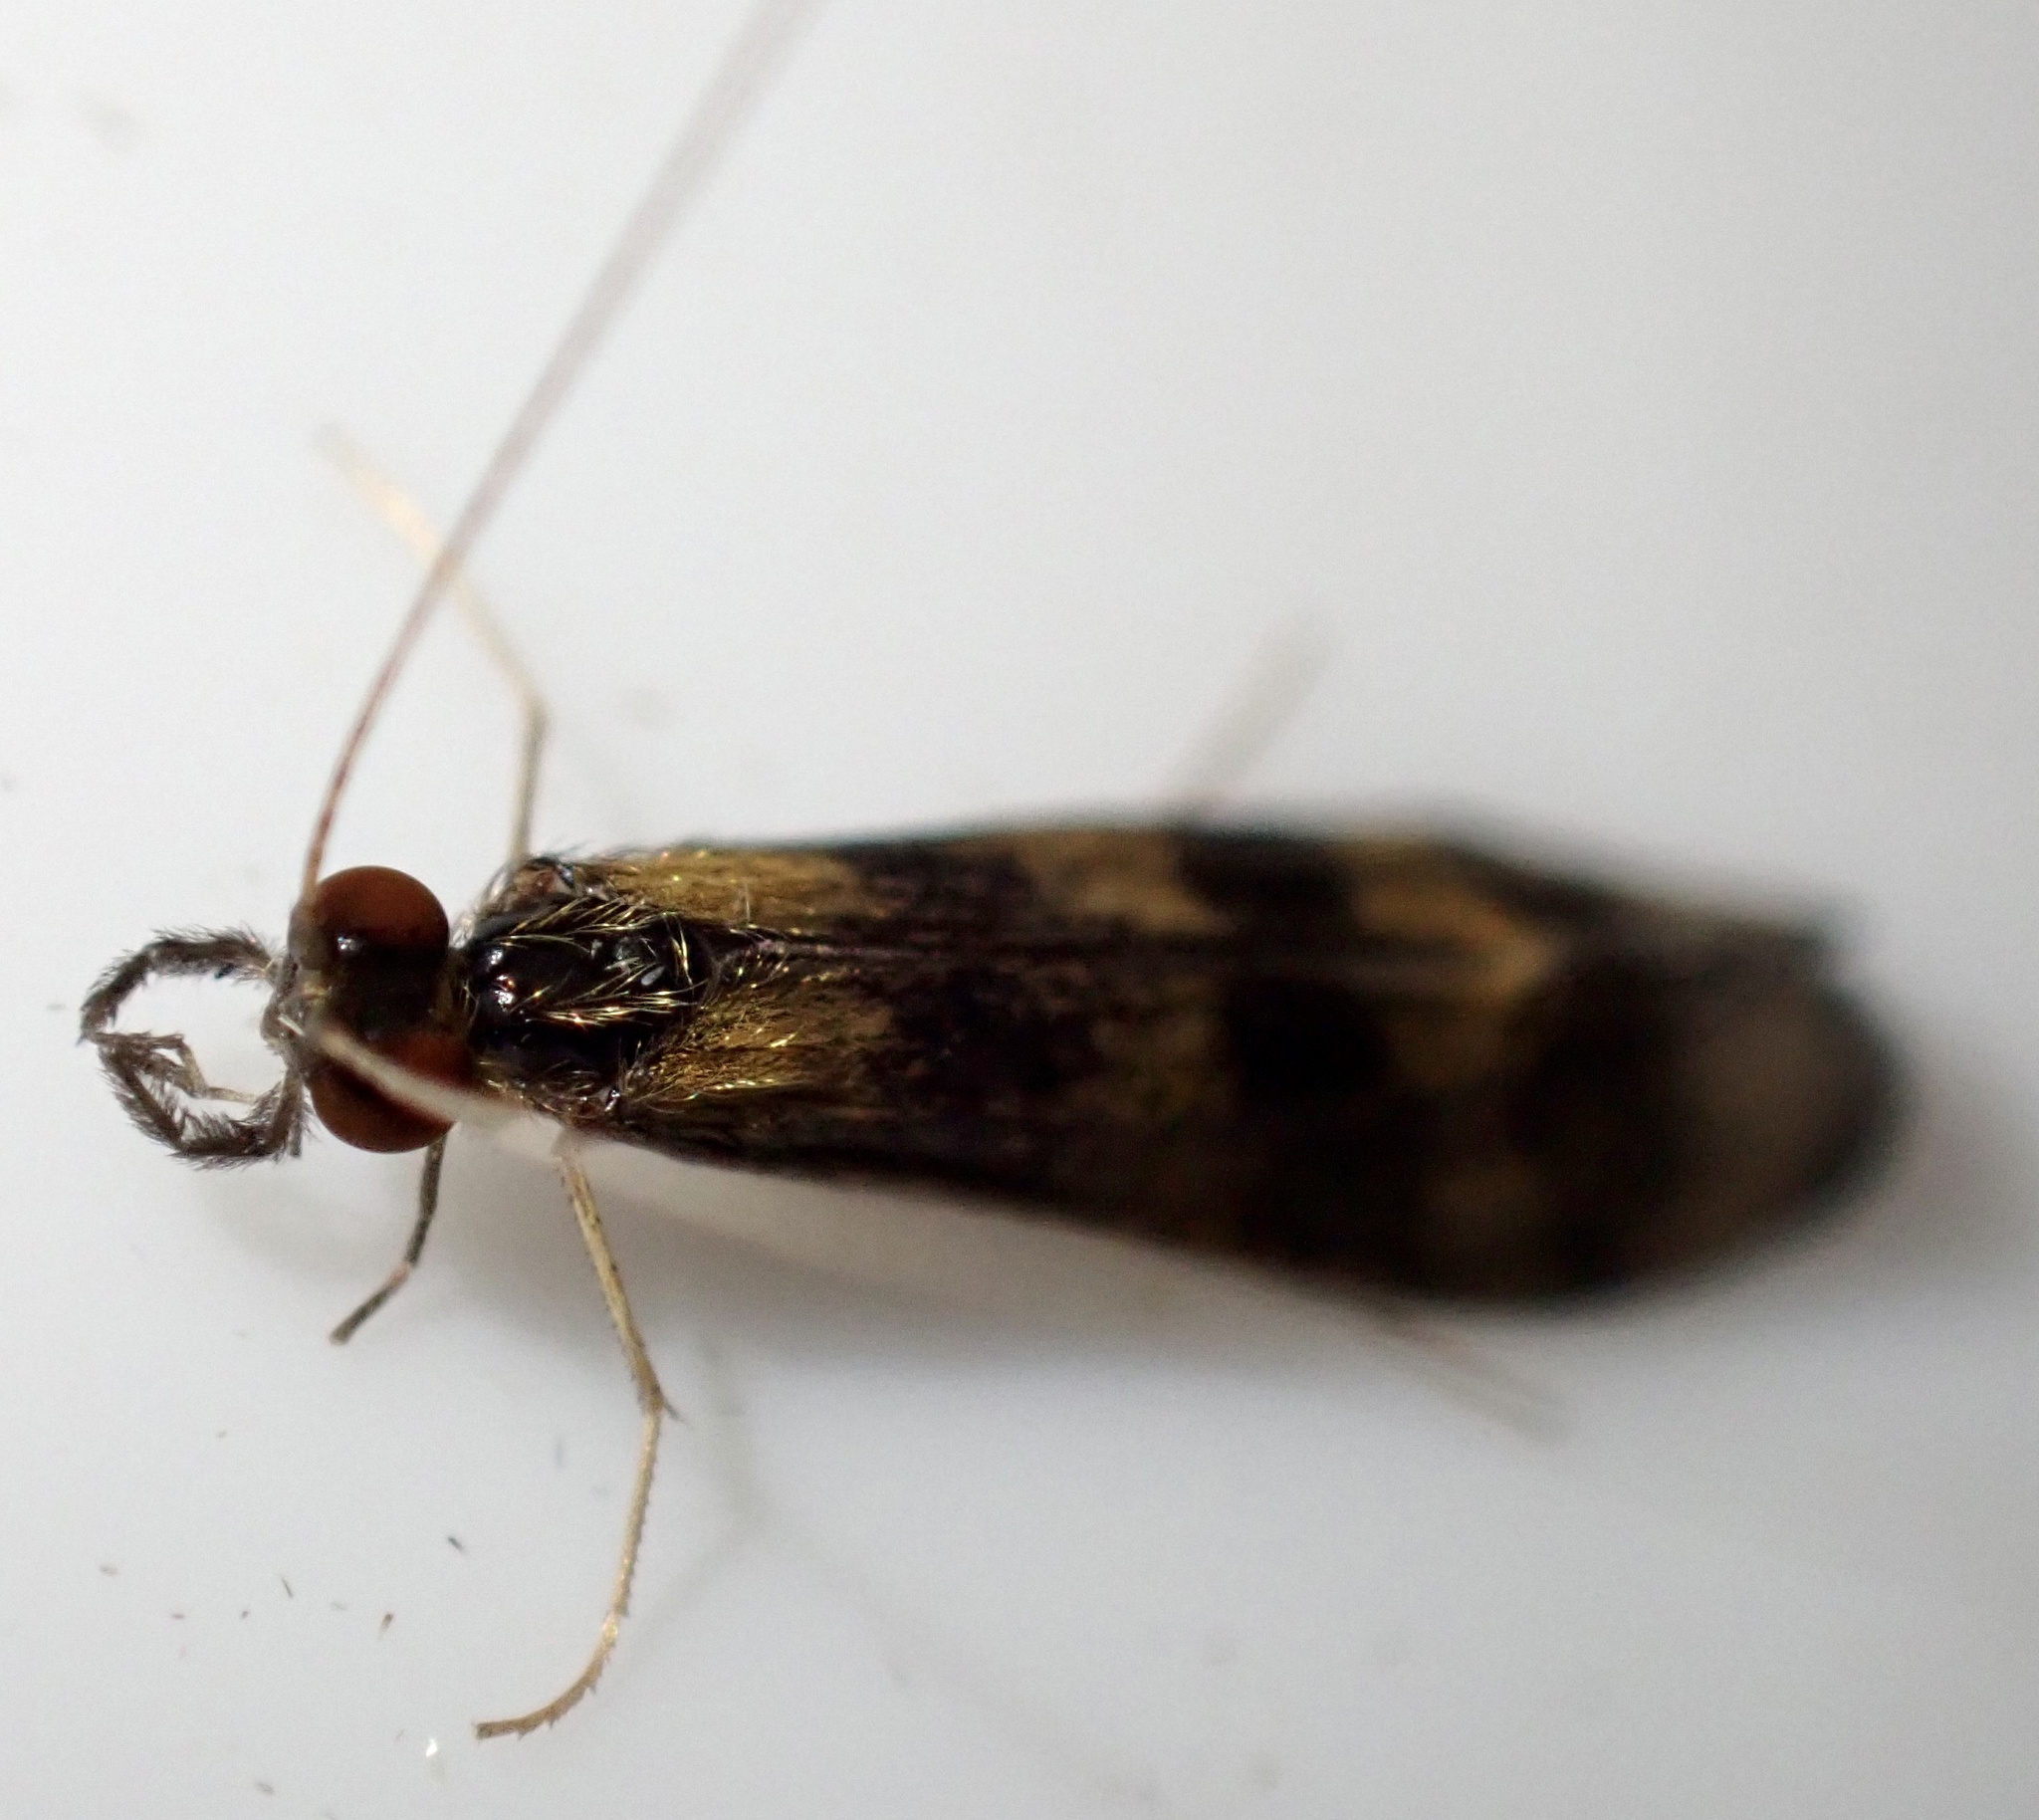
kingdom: Animalia
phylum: Arthropoda
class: Insecta
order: Trichoptera
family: Leptoceridae
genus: Mystacides
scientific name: Mystacides longicornis
